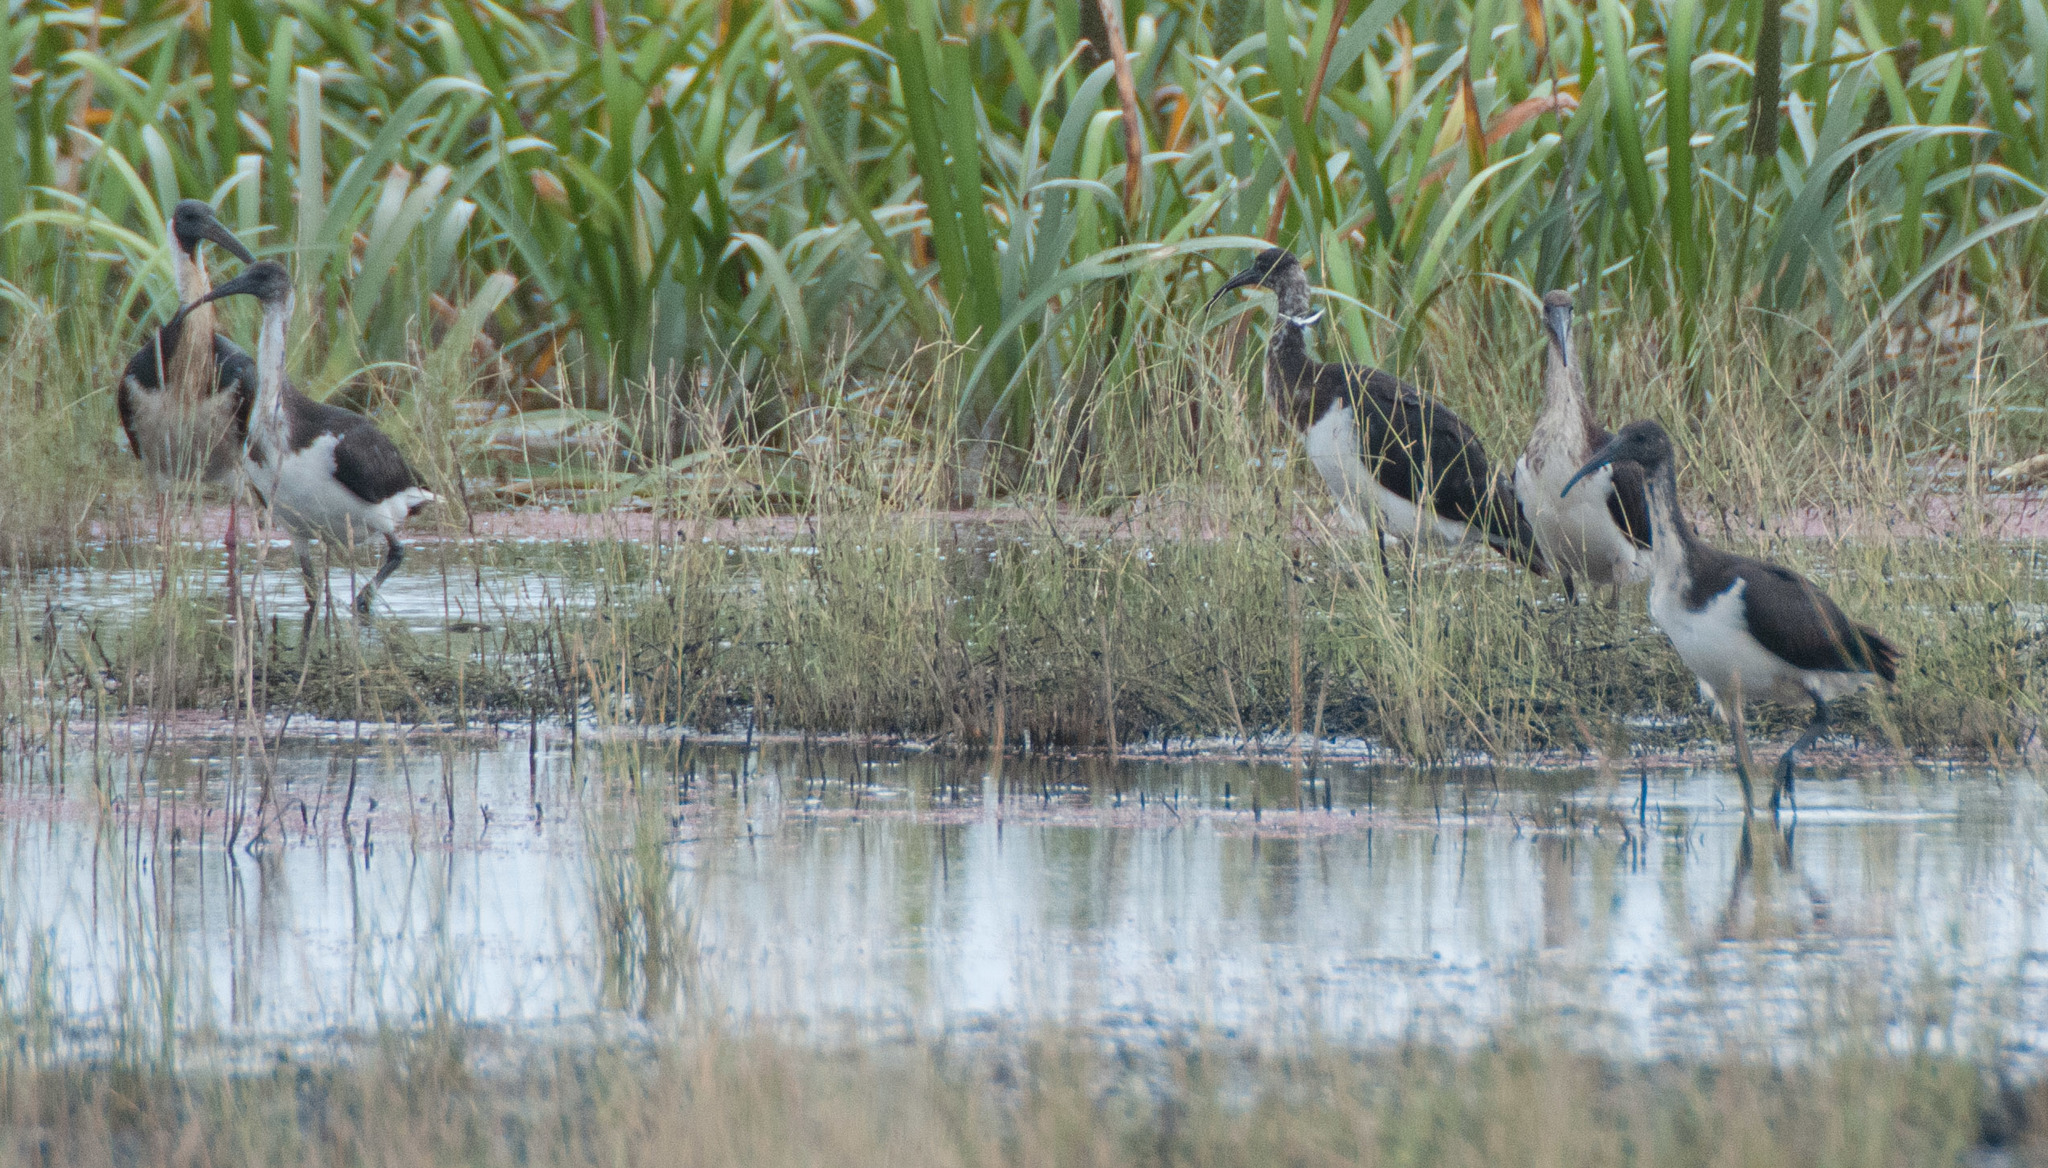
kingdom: Animalia
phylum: Chordata
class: Aves
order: Pelecaniformes
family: Threskiornithidae
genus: Threskiornis
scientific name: Threskiornis spinicollis
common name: Straw-necked ibis
